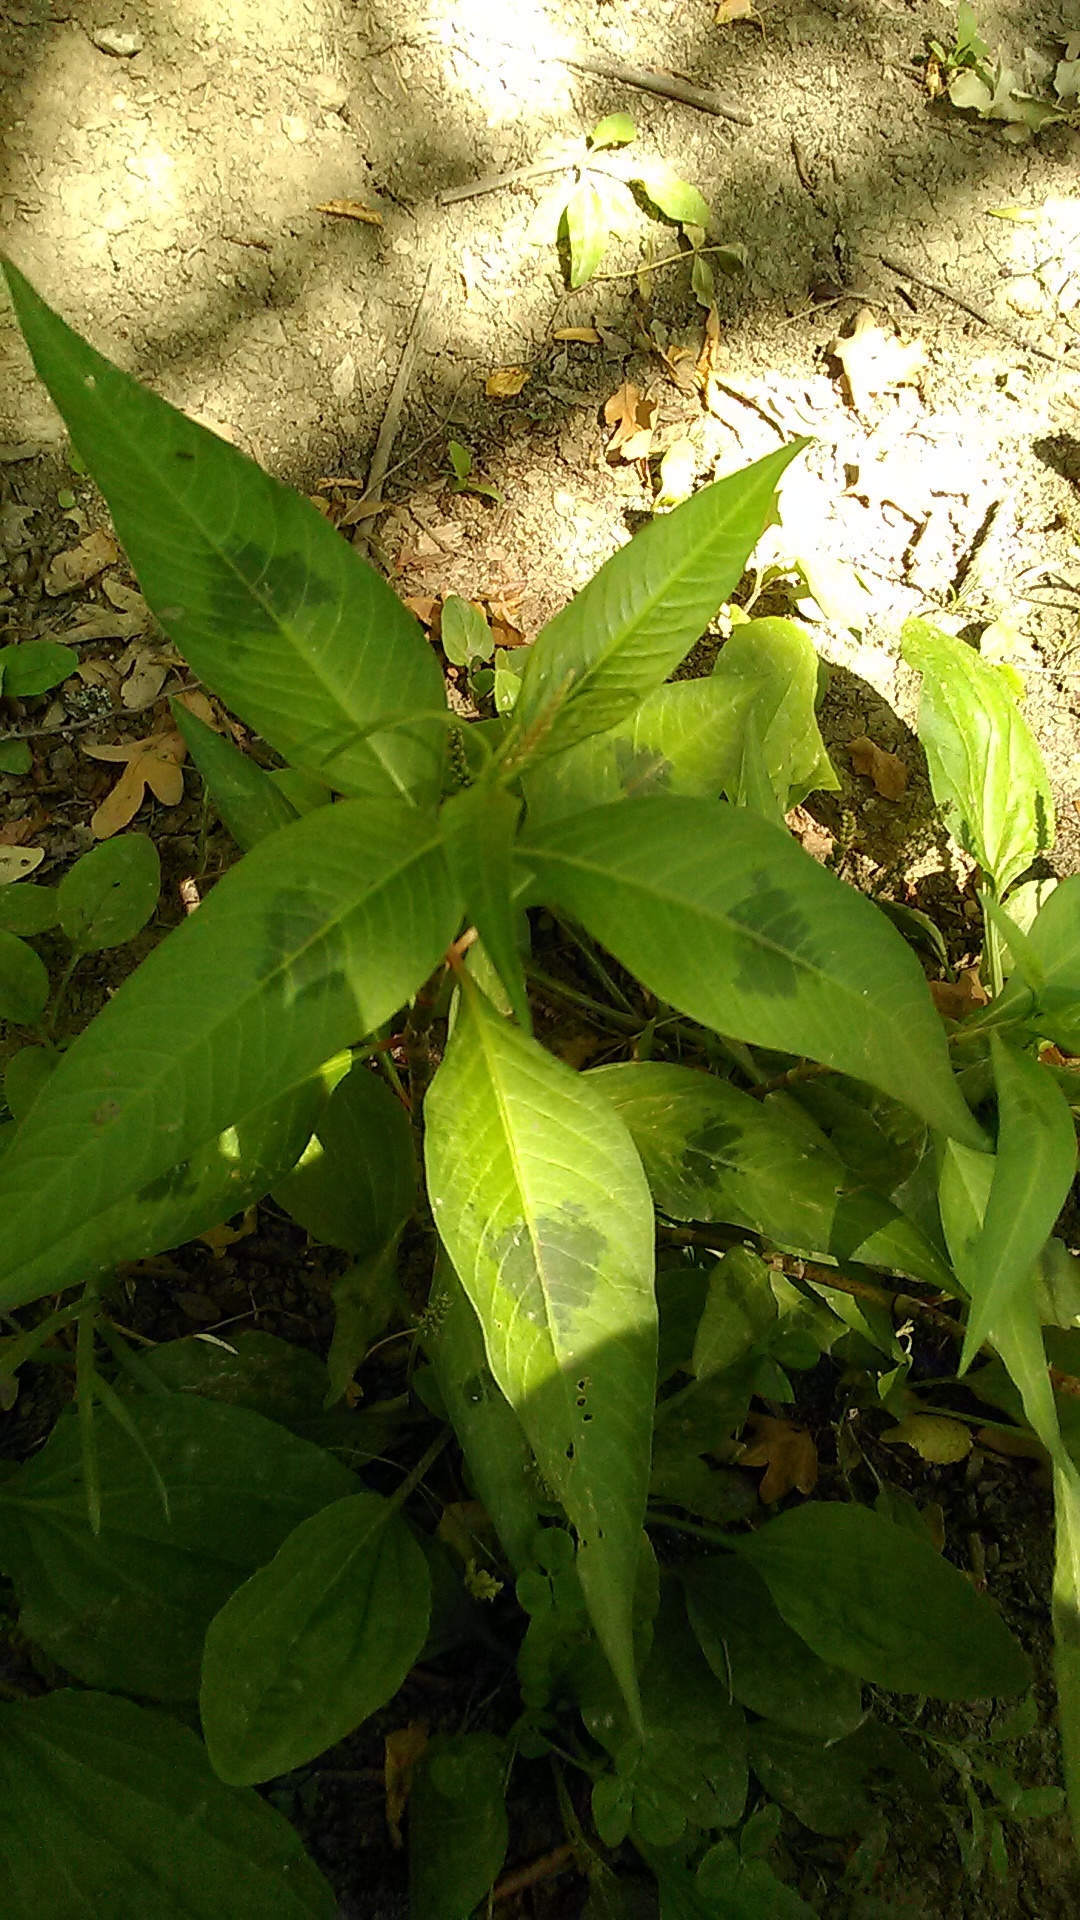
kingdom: Plantae
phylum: Tracheophyta
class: Magnoliopsida
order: Caryophyllales
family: Polygonaceae
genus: Persicaria
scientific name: Persicaria lapathifolia
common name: Curlytop knotweed
